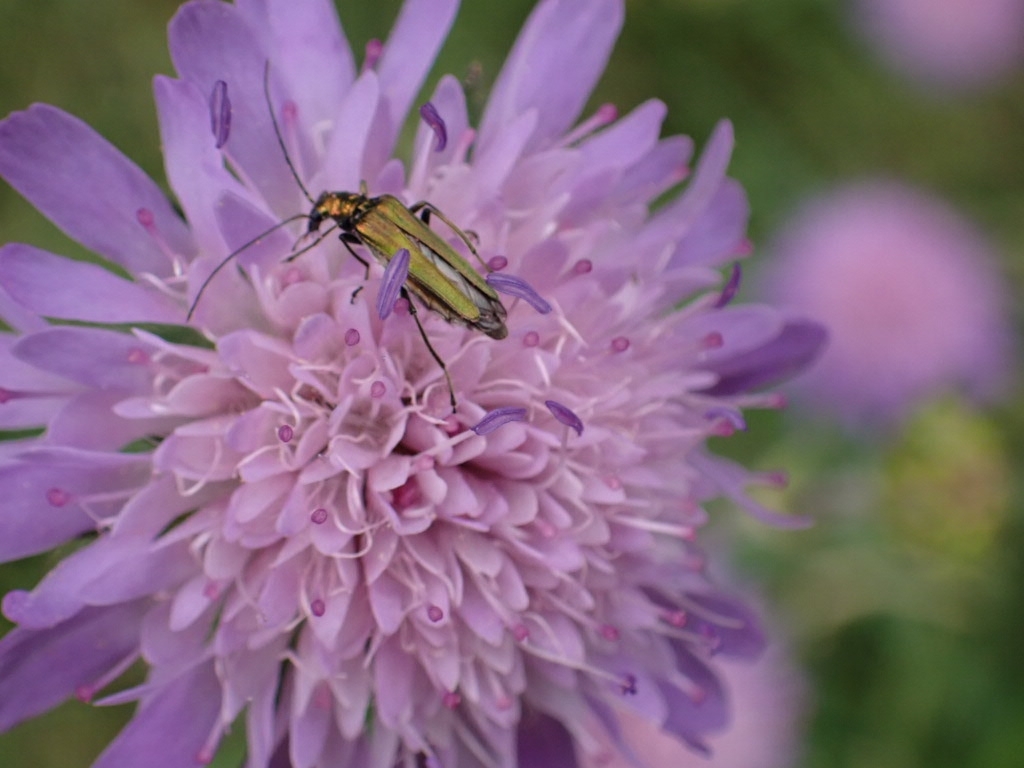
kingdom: Animalia
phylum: Arthropoda
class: Insecta
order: Coleoptera
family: Oedemeridae
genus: Oedemera
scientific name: Oedemera nobilis
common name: Swollen-thighed beetle
